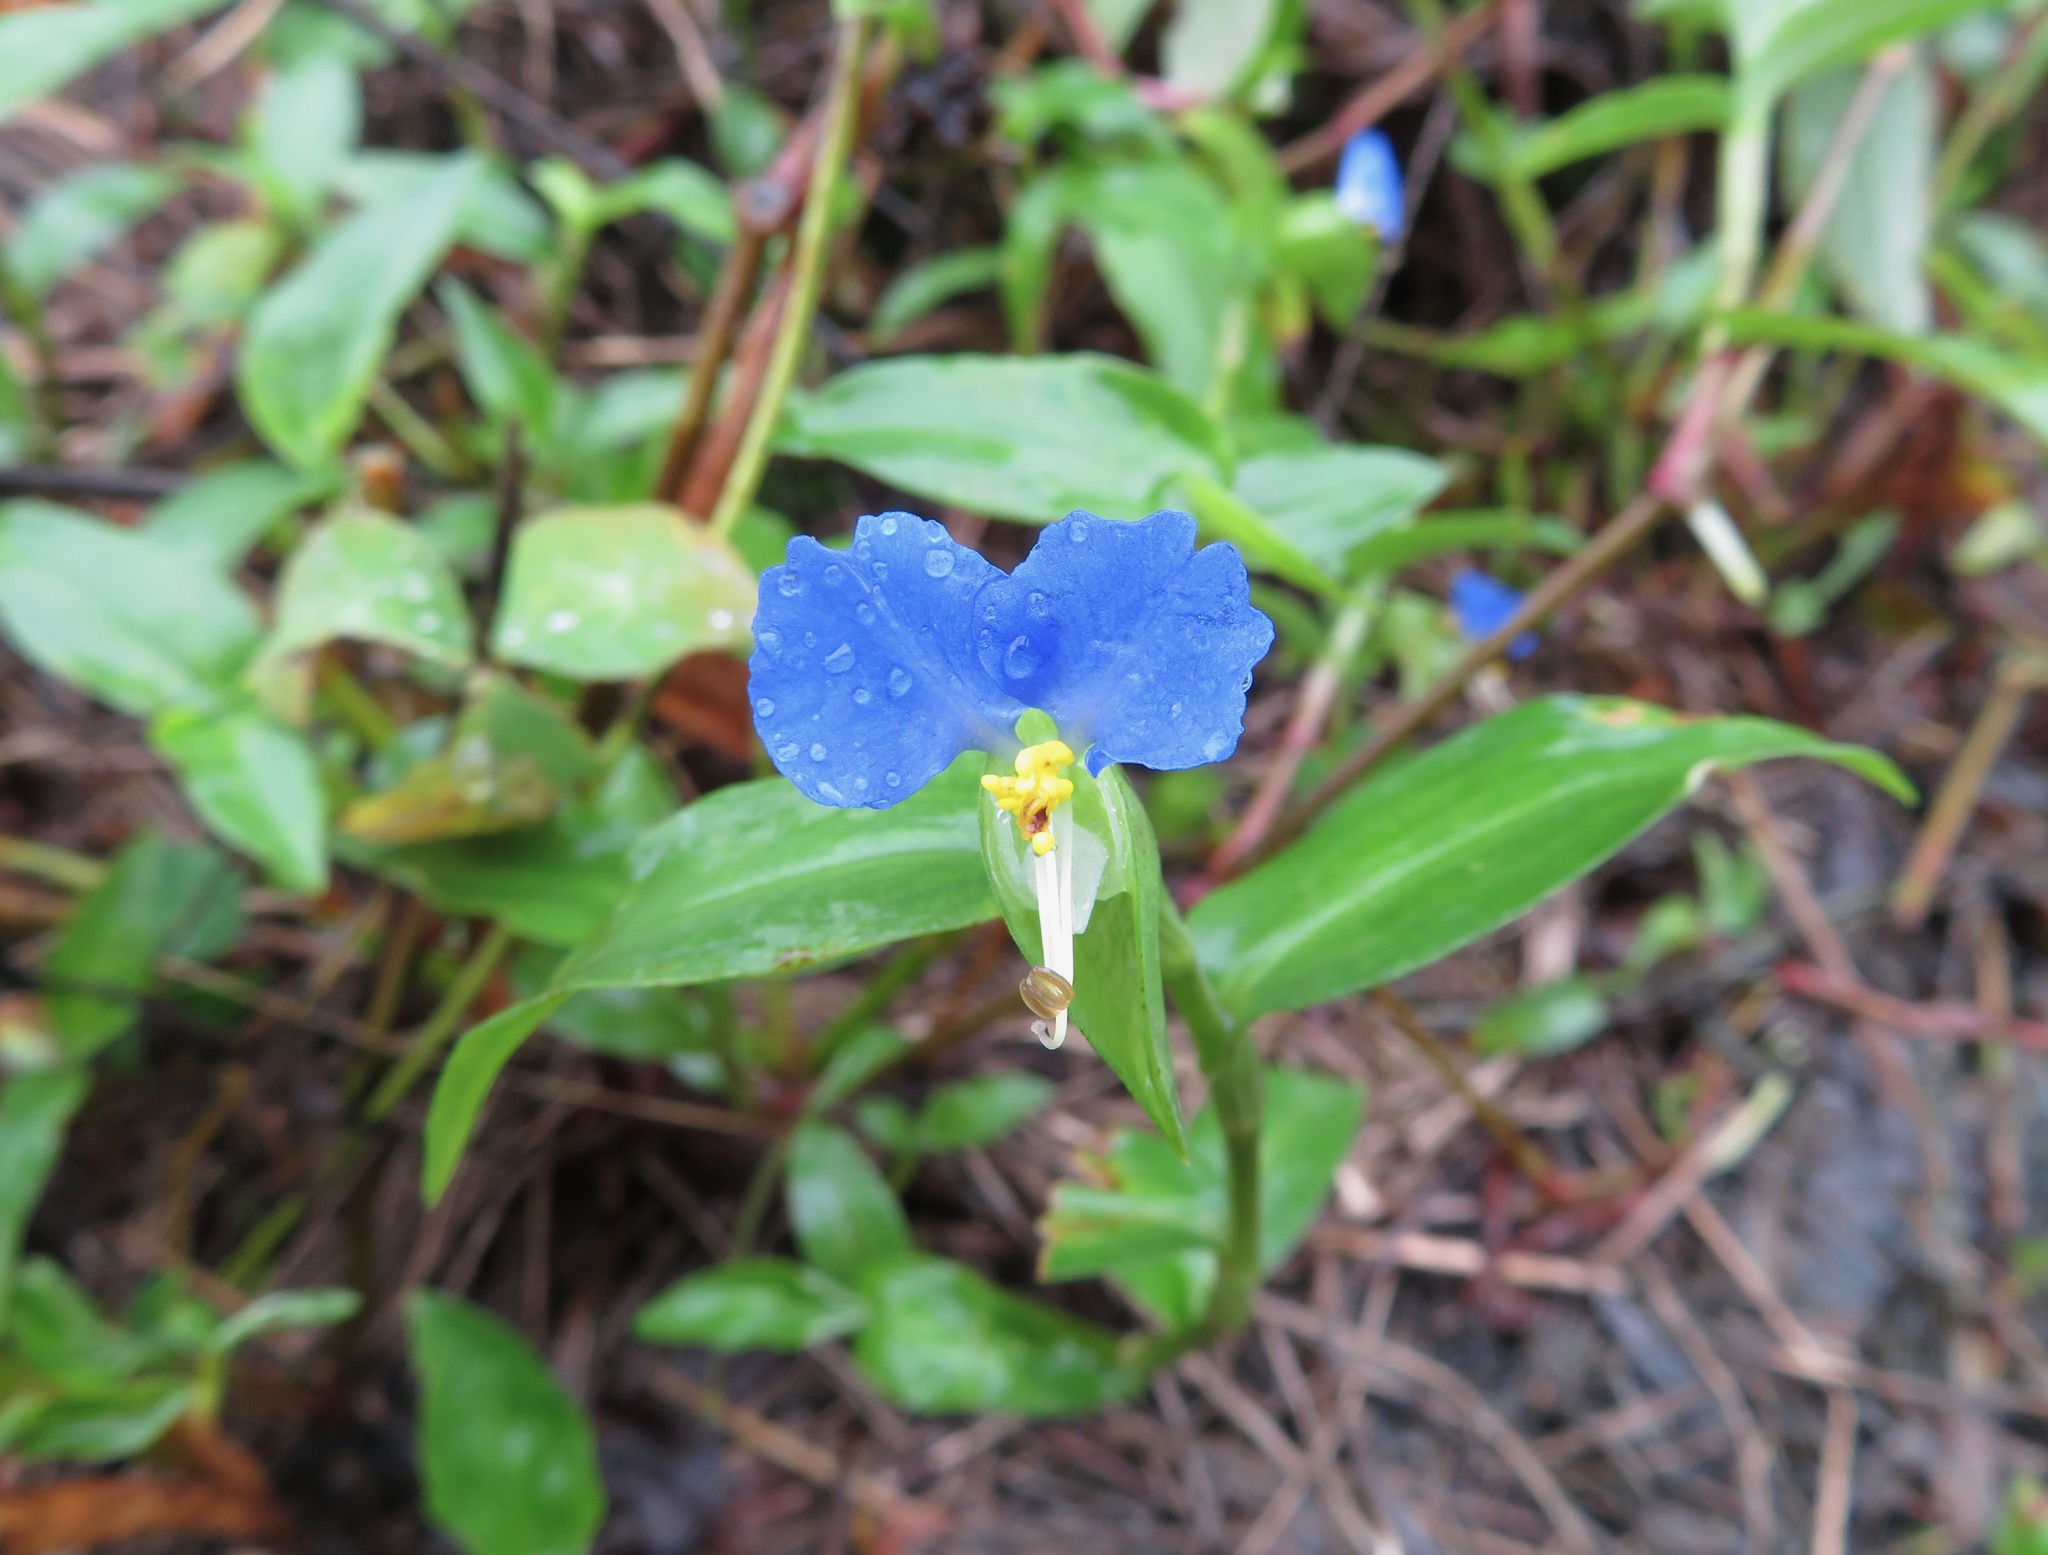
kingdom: Plantae
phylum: Tracheophyta
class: Liliopsida
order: Commelinales
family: Commelinaceae
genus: Commelina
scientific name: Commelina communis
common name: Asiatic dayflower
